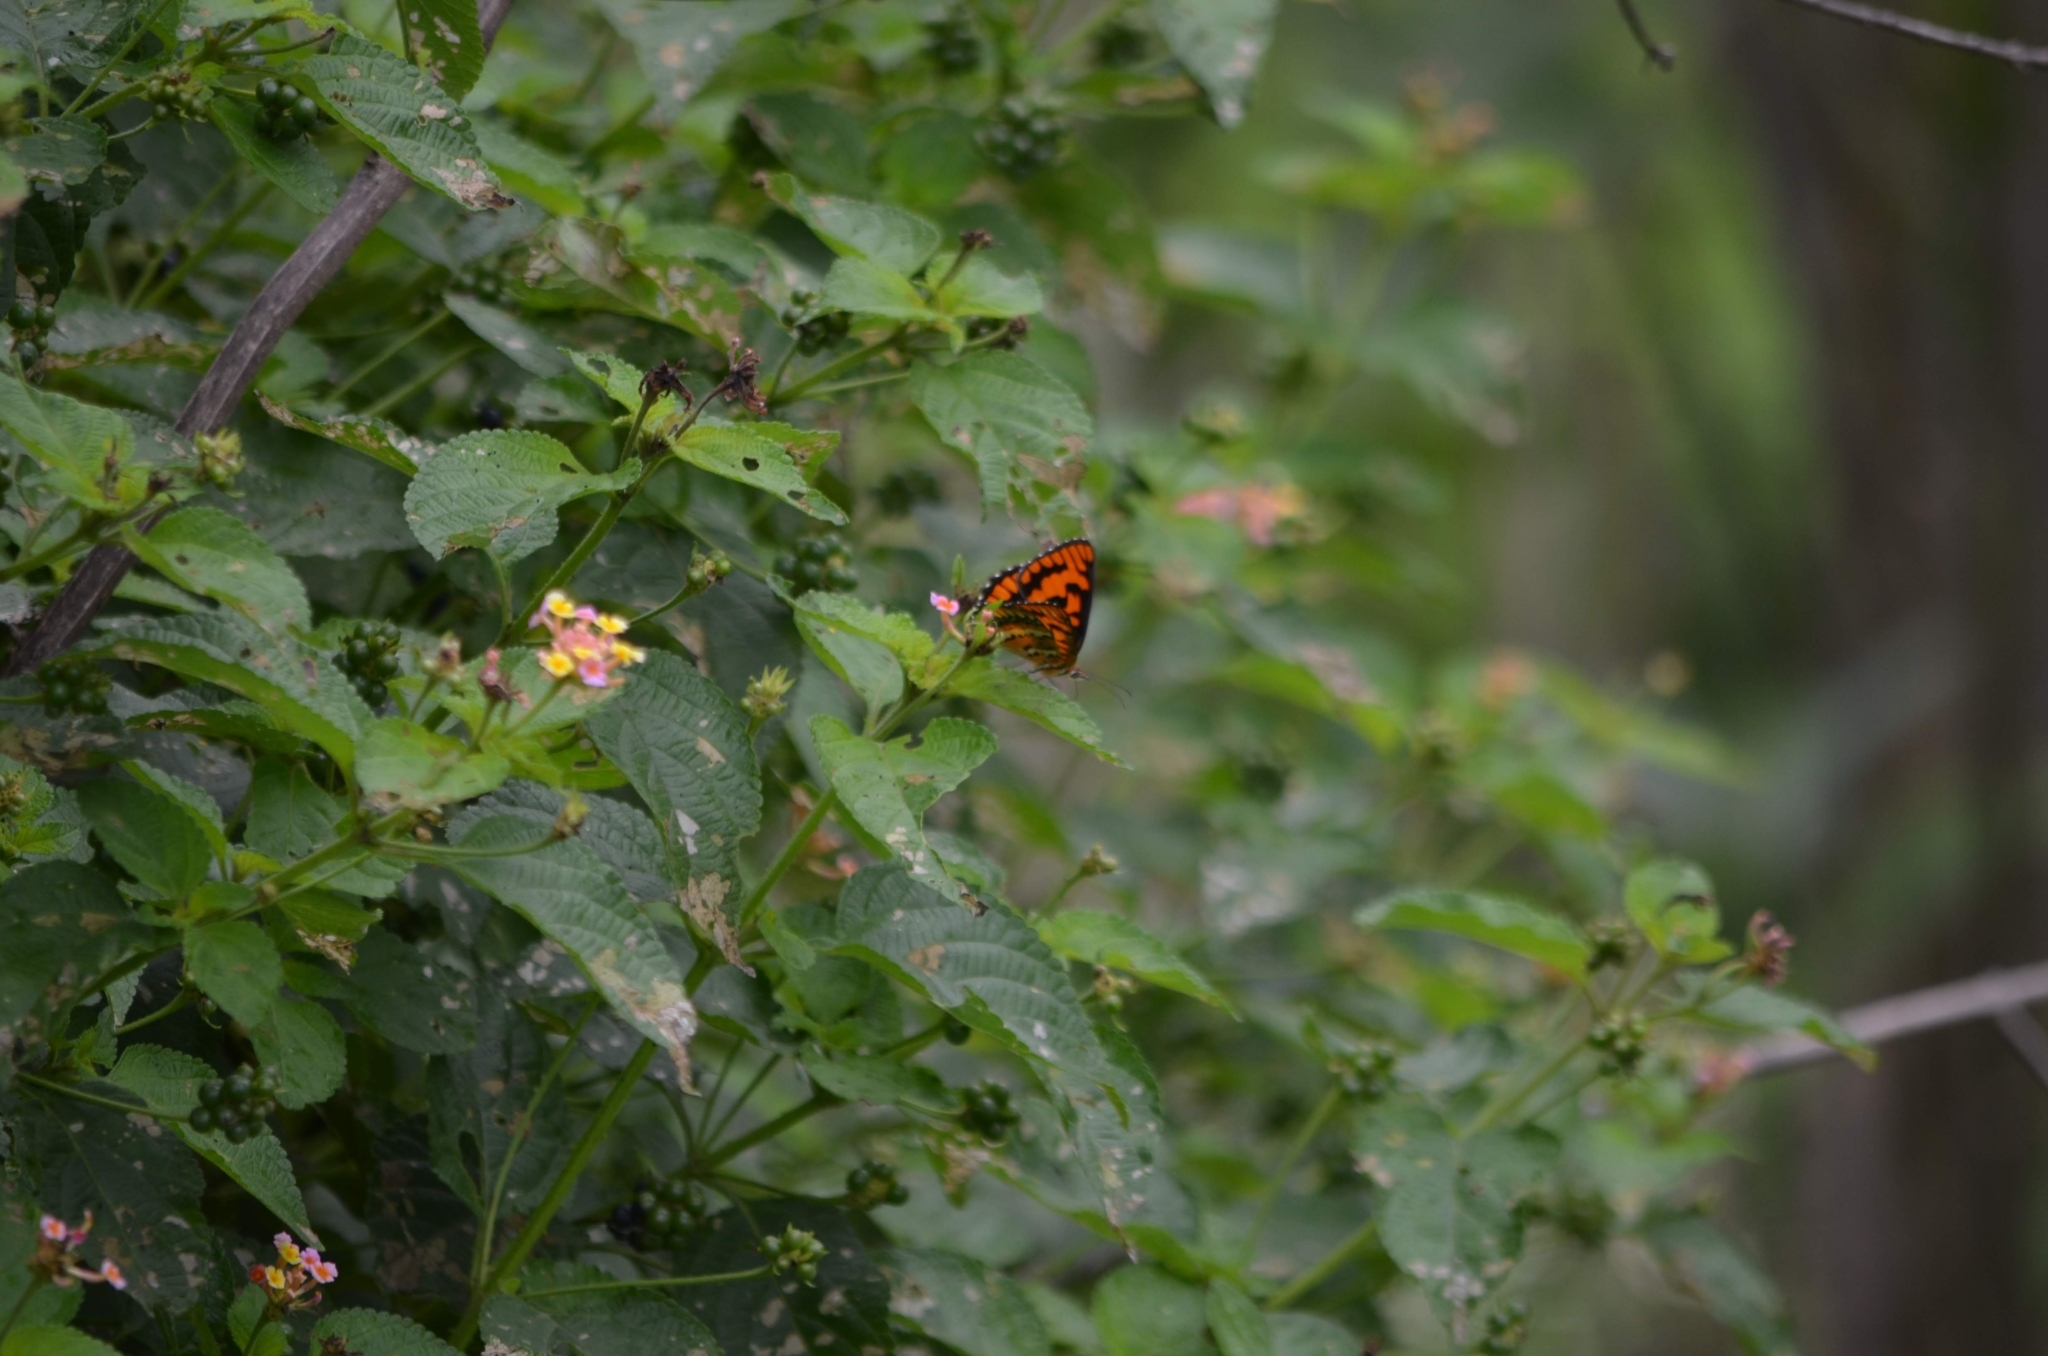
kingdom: Animalia
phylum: Arthropoda
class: Insecta
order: Lepidoptera
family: Nymphalidae
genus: Byblia
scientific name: Byblia ilithyia
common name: Spotted joker
